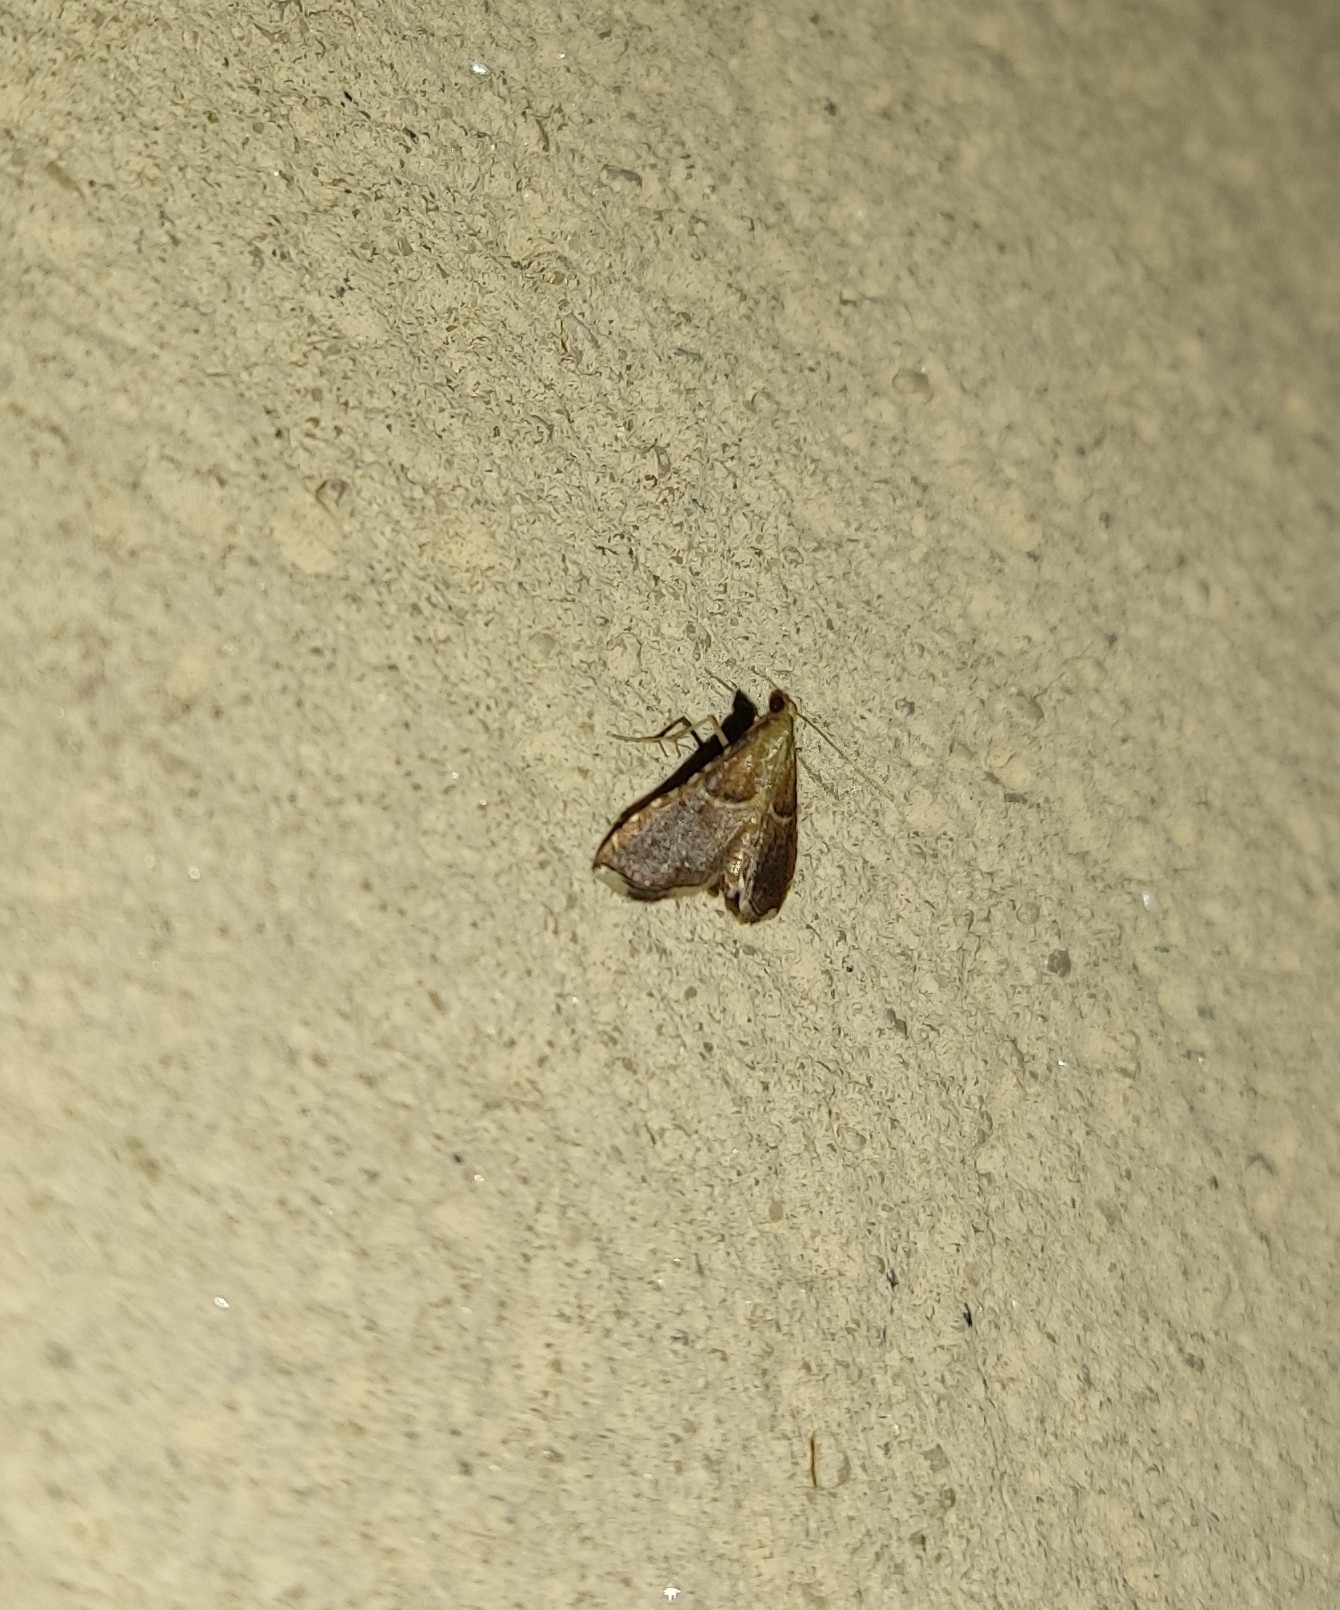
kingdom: Animalia
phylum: Arthropoda
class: Insecta
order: Lepidoptera
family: Pyralidae
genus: Endotricha
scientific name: Endotricha flammealis
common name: Rosy tabby
